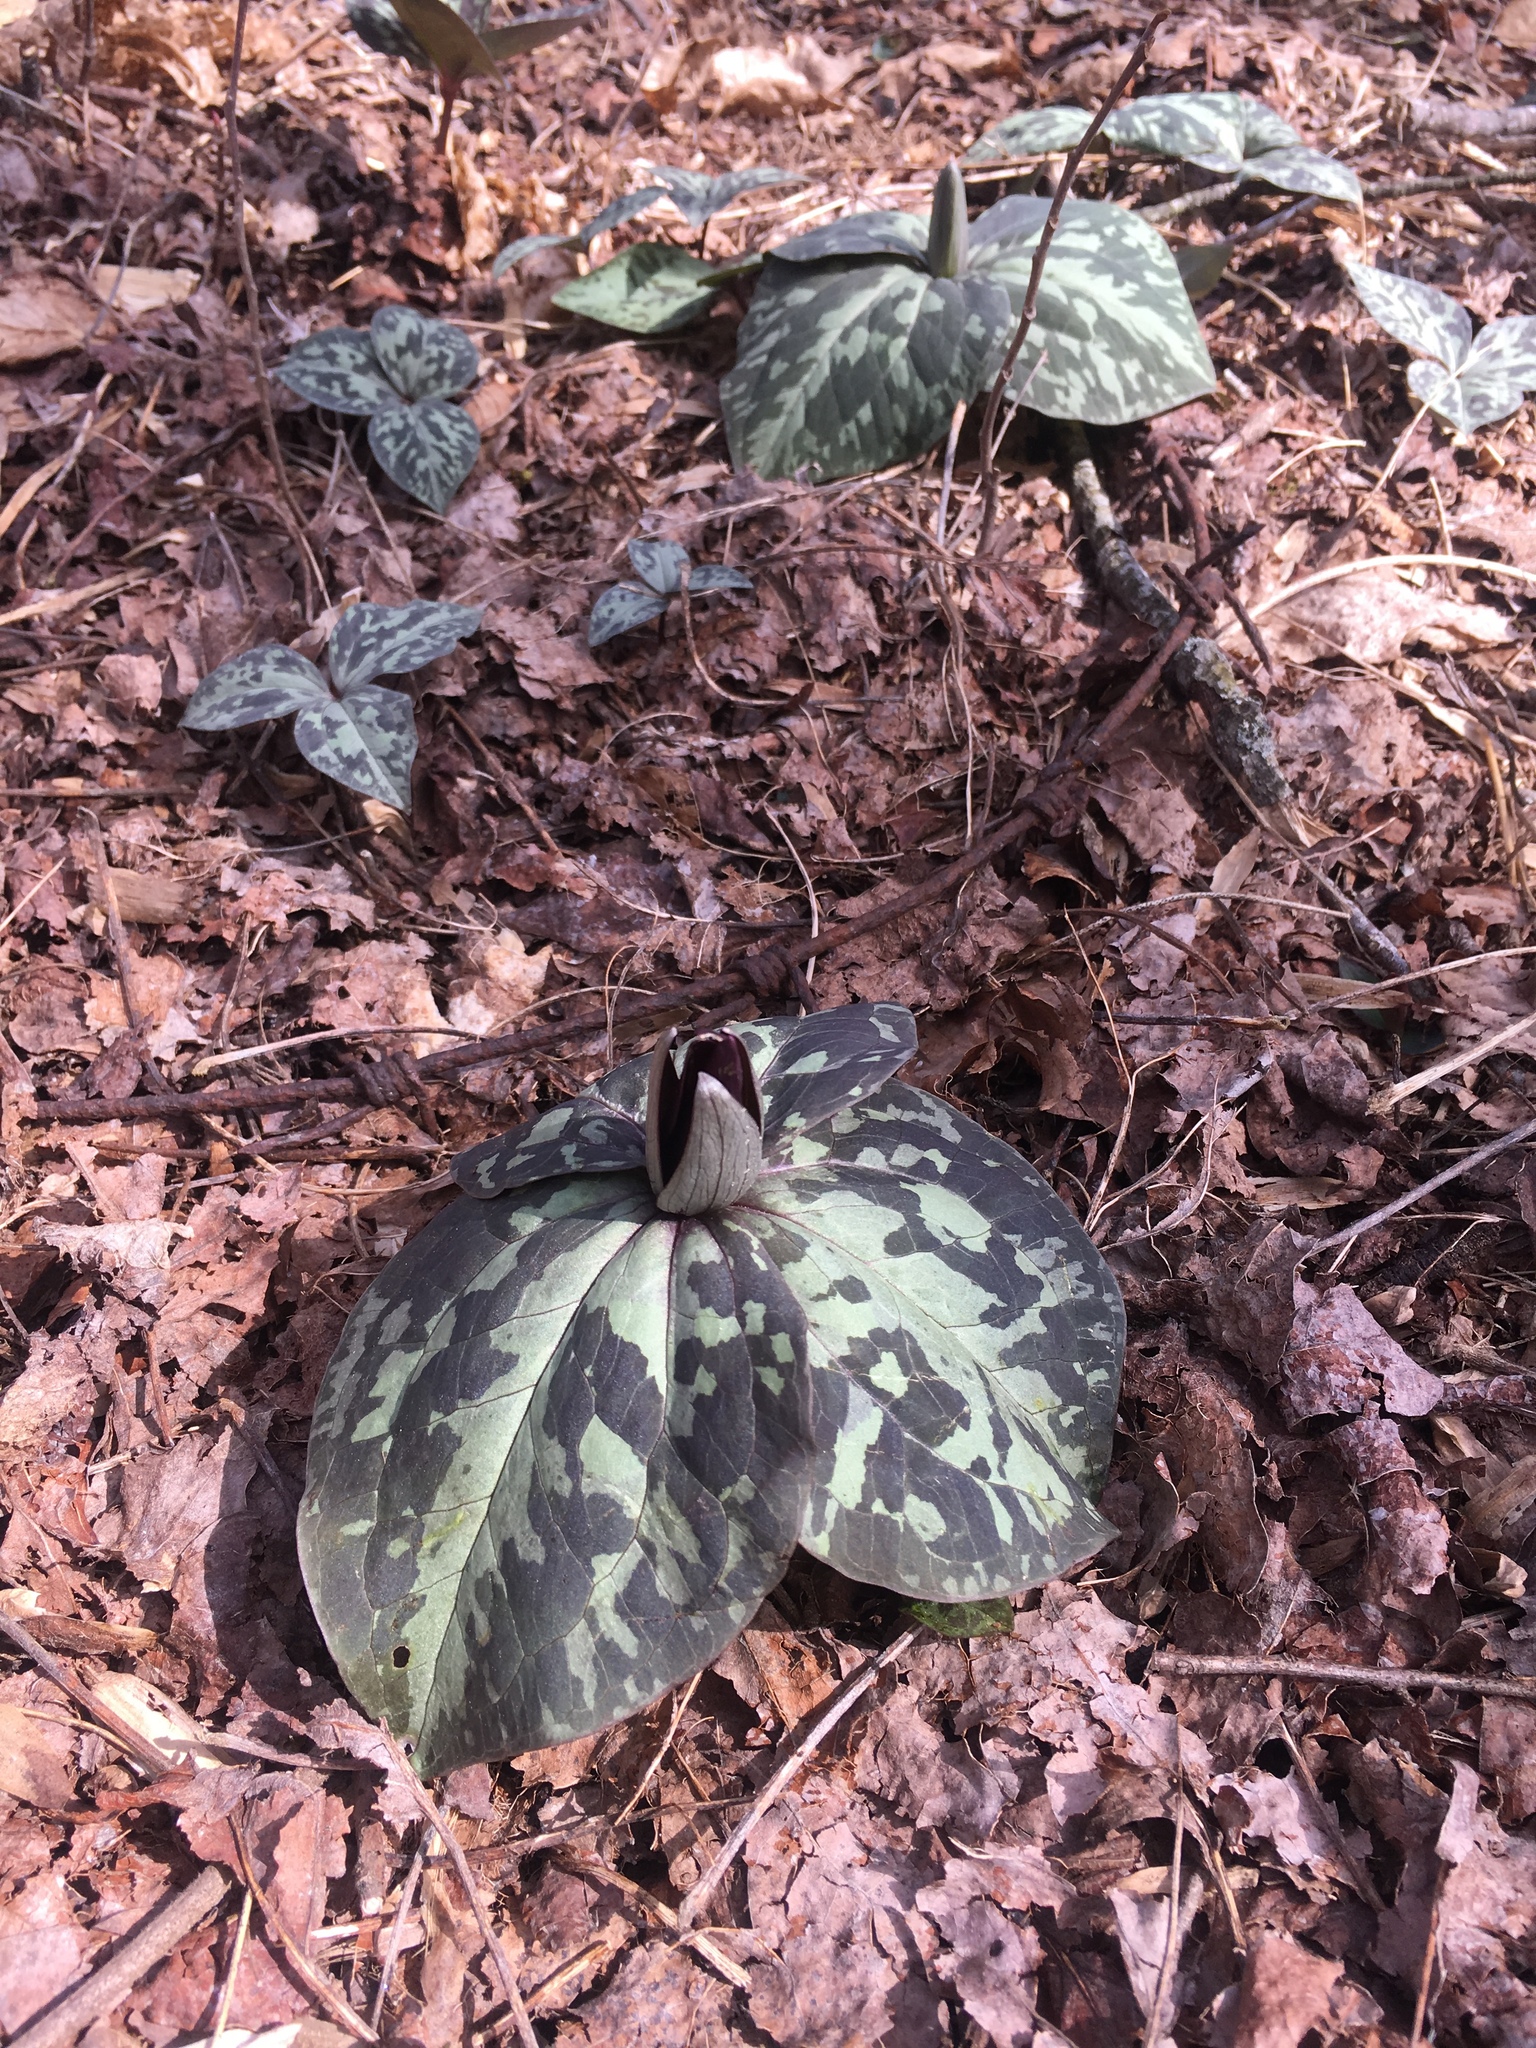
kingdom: Plantae
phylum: Tracheophyta
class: Liliopsida
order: Liliales
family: Melanthiaceae
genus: Trillium
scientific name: Trillium cuneatum
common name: Cuneate trillium
